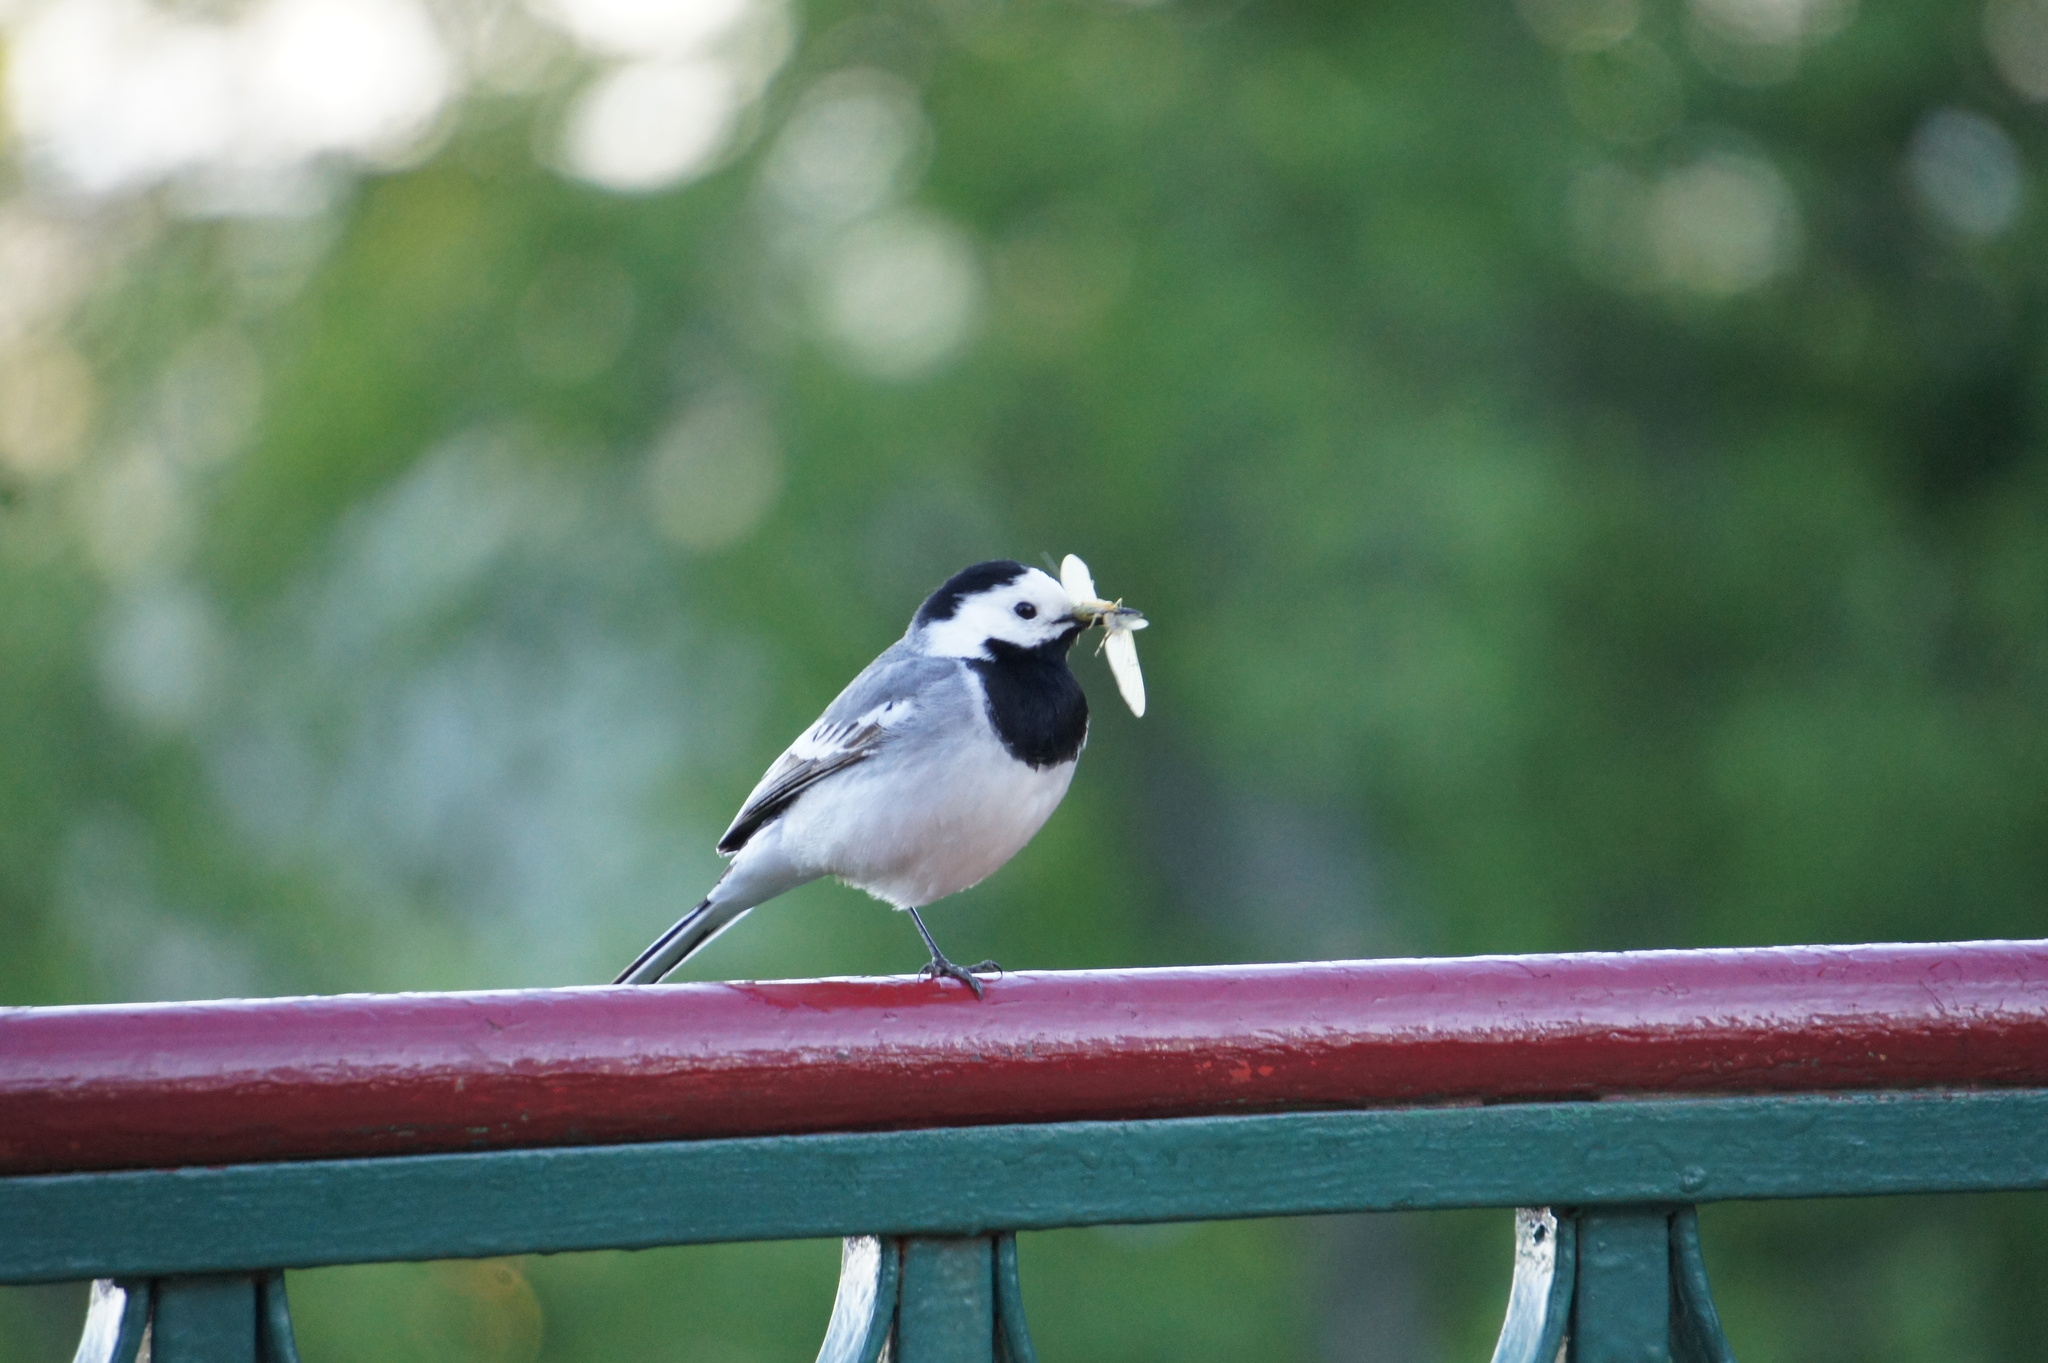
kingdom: Animalia
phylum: Chordata
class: Aves
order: Passeriformes
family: Motacillidae
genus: Motacilla
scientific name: Motacilla alba
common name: White wagtail
